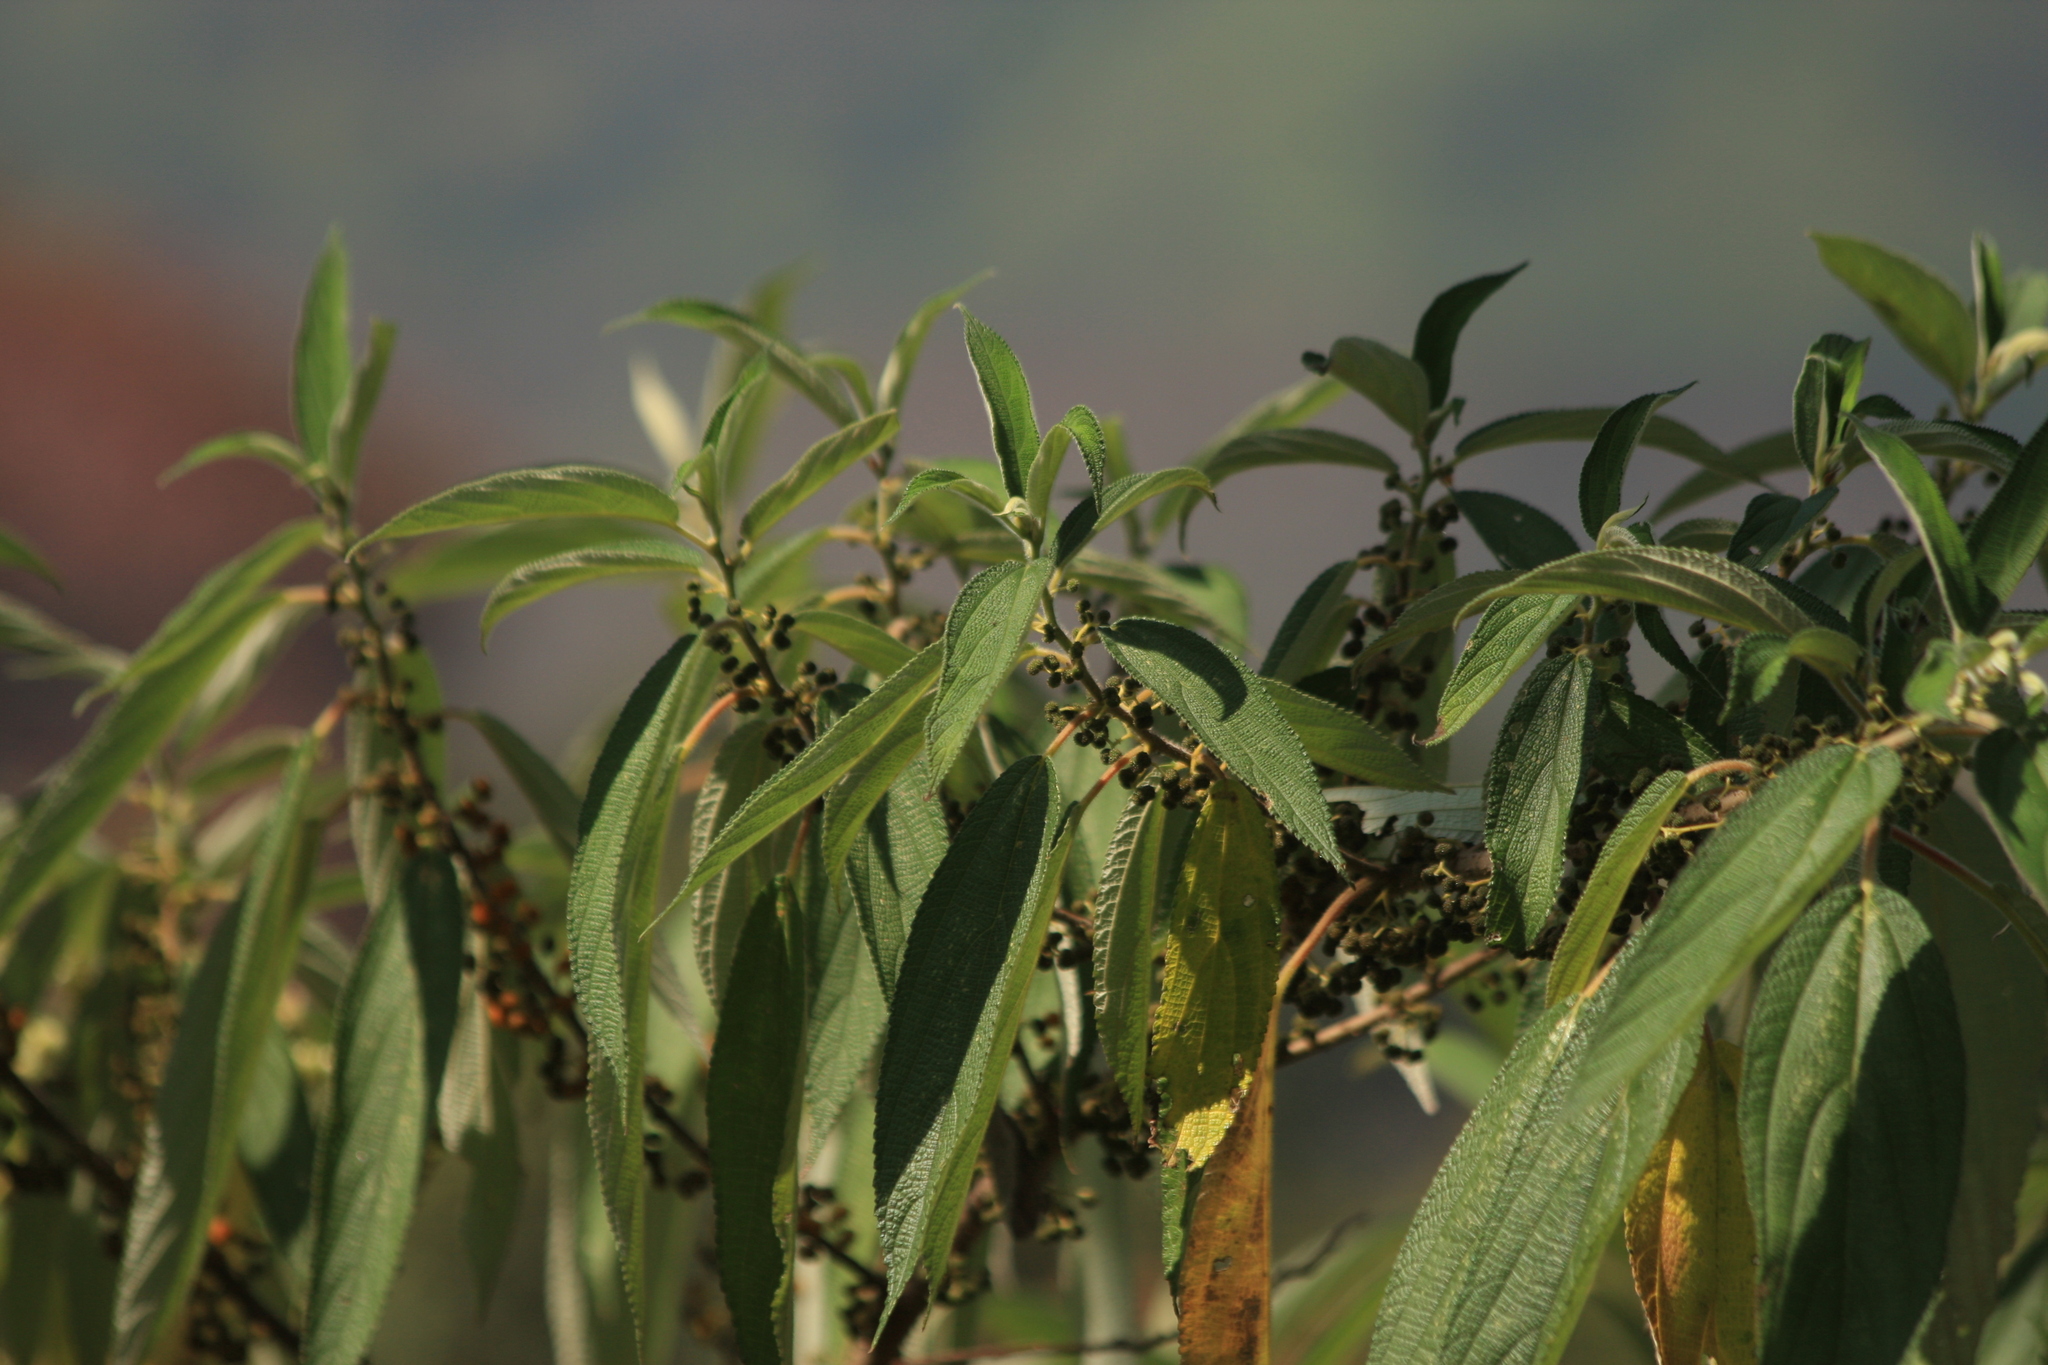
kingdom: Plantae
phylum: Tracheophyta
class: Magnoliopsida
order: Rosales
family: Urticaceae
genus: Debregeasia
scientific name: Debregeasia longifolia
